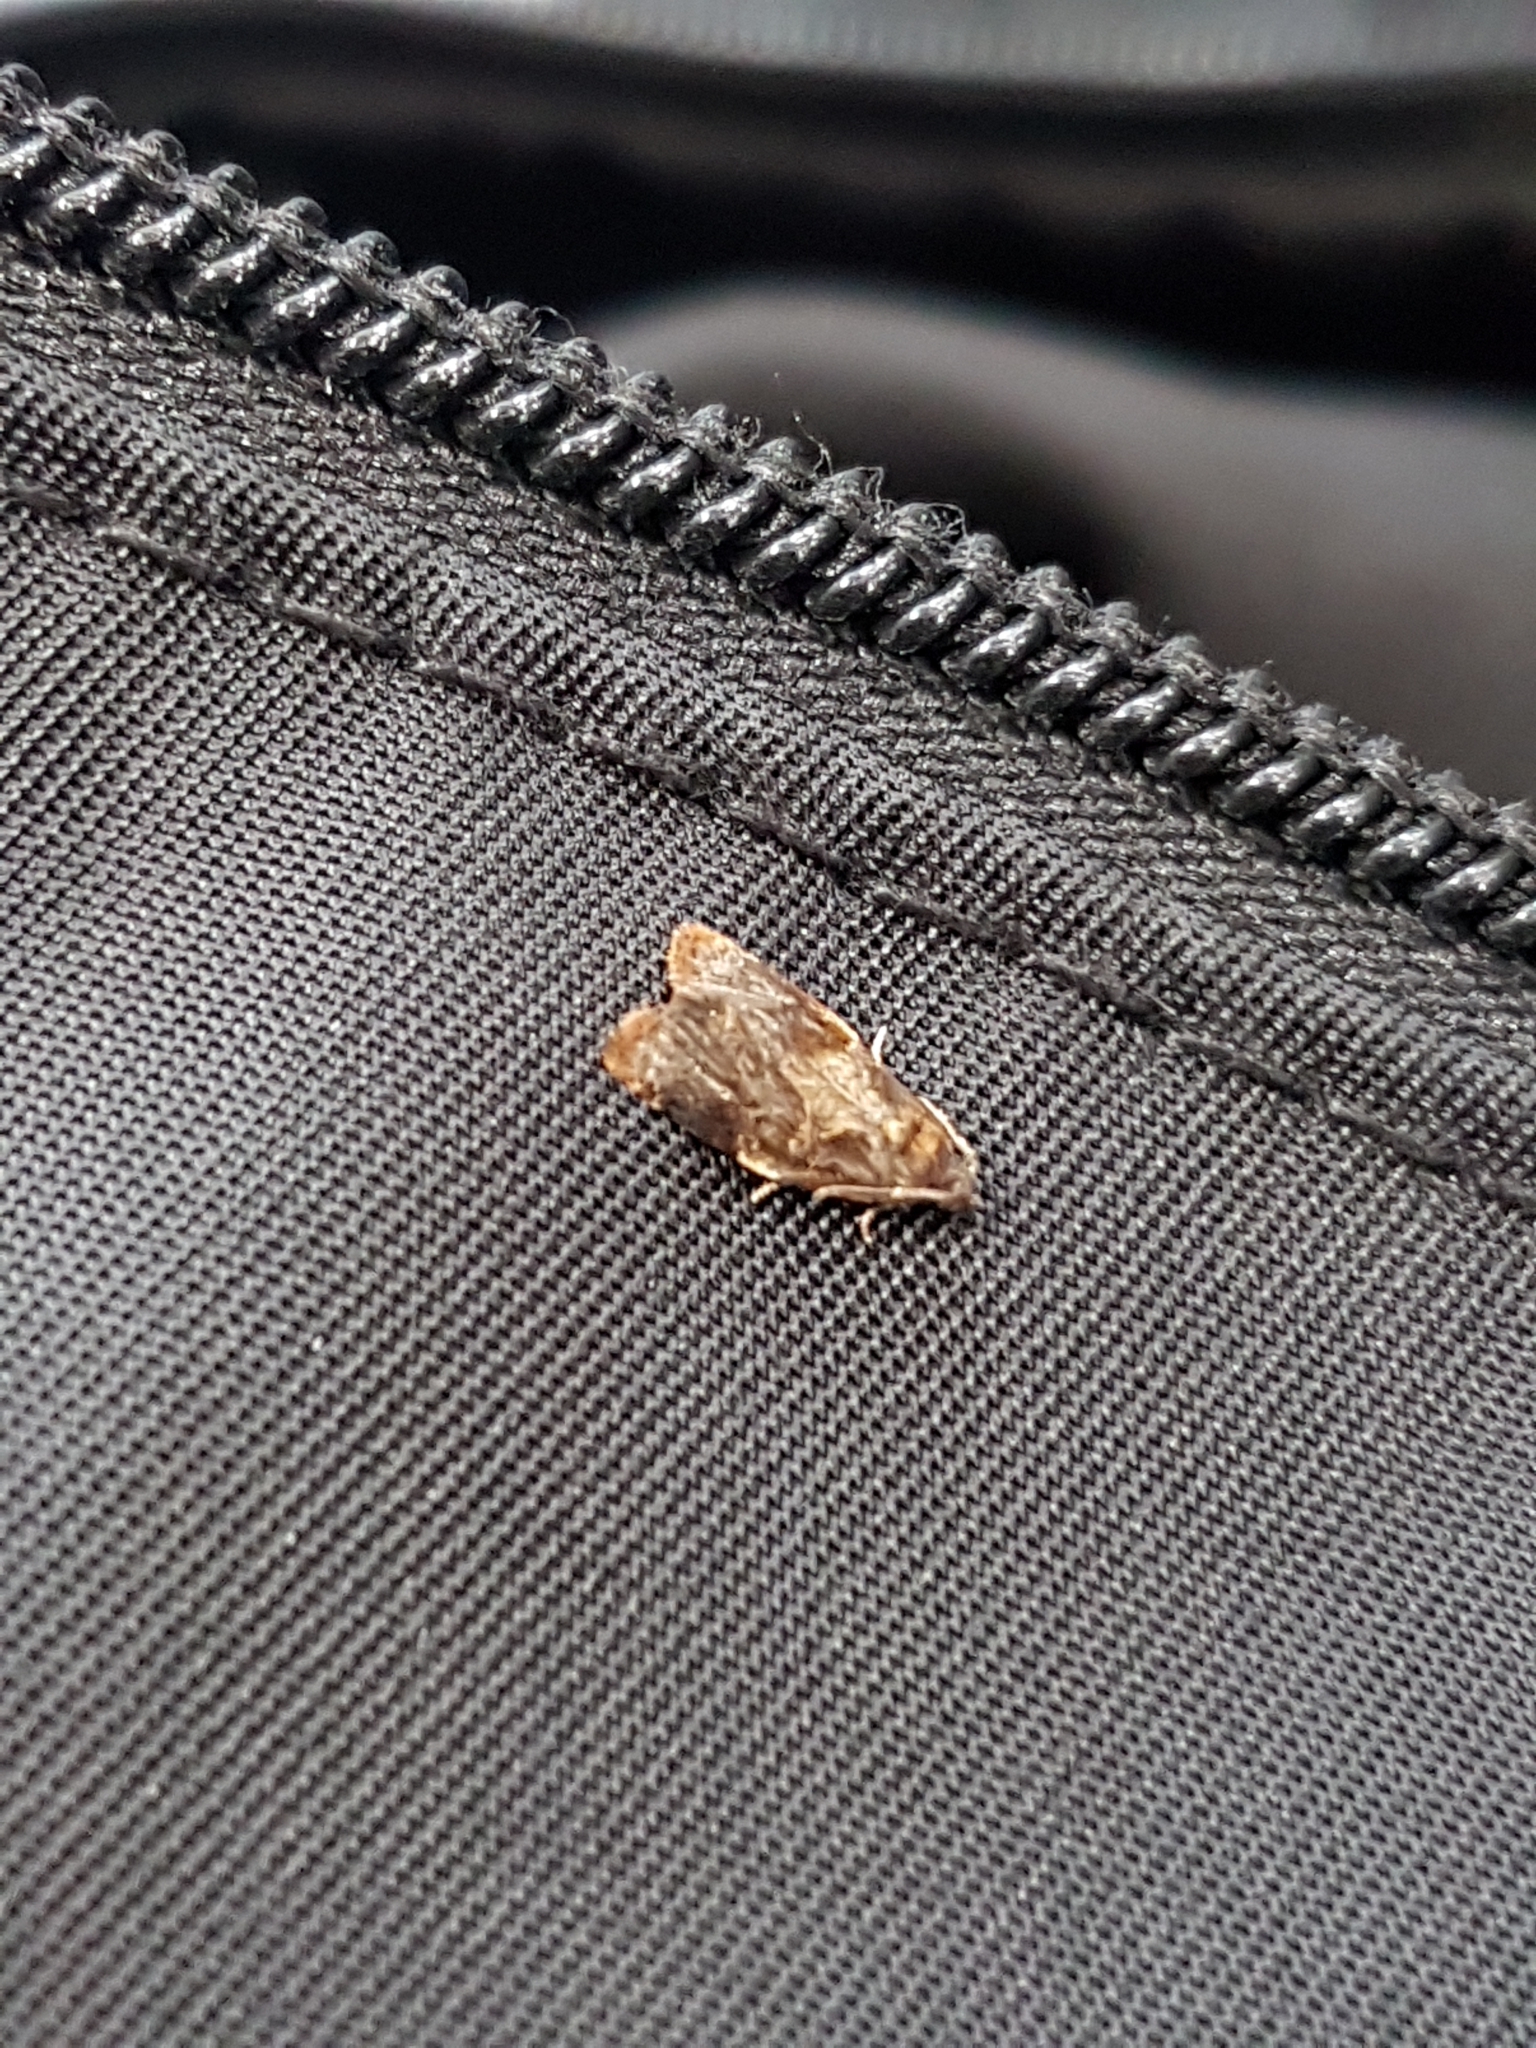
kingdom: Animalia
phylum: Arthropoda
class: Insecta
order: Lepidoptera
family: Tortricidae
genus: Ditula
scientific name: Ditula angustiorana
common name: Red-barred tortrix
